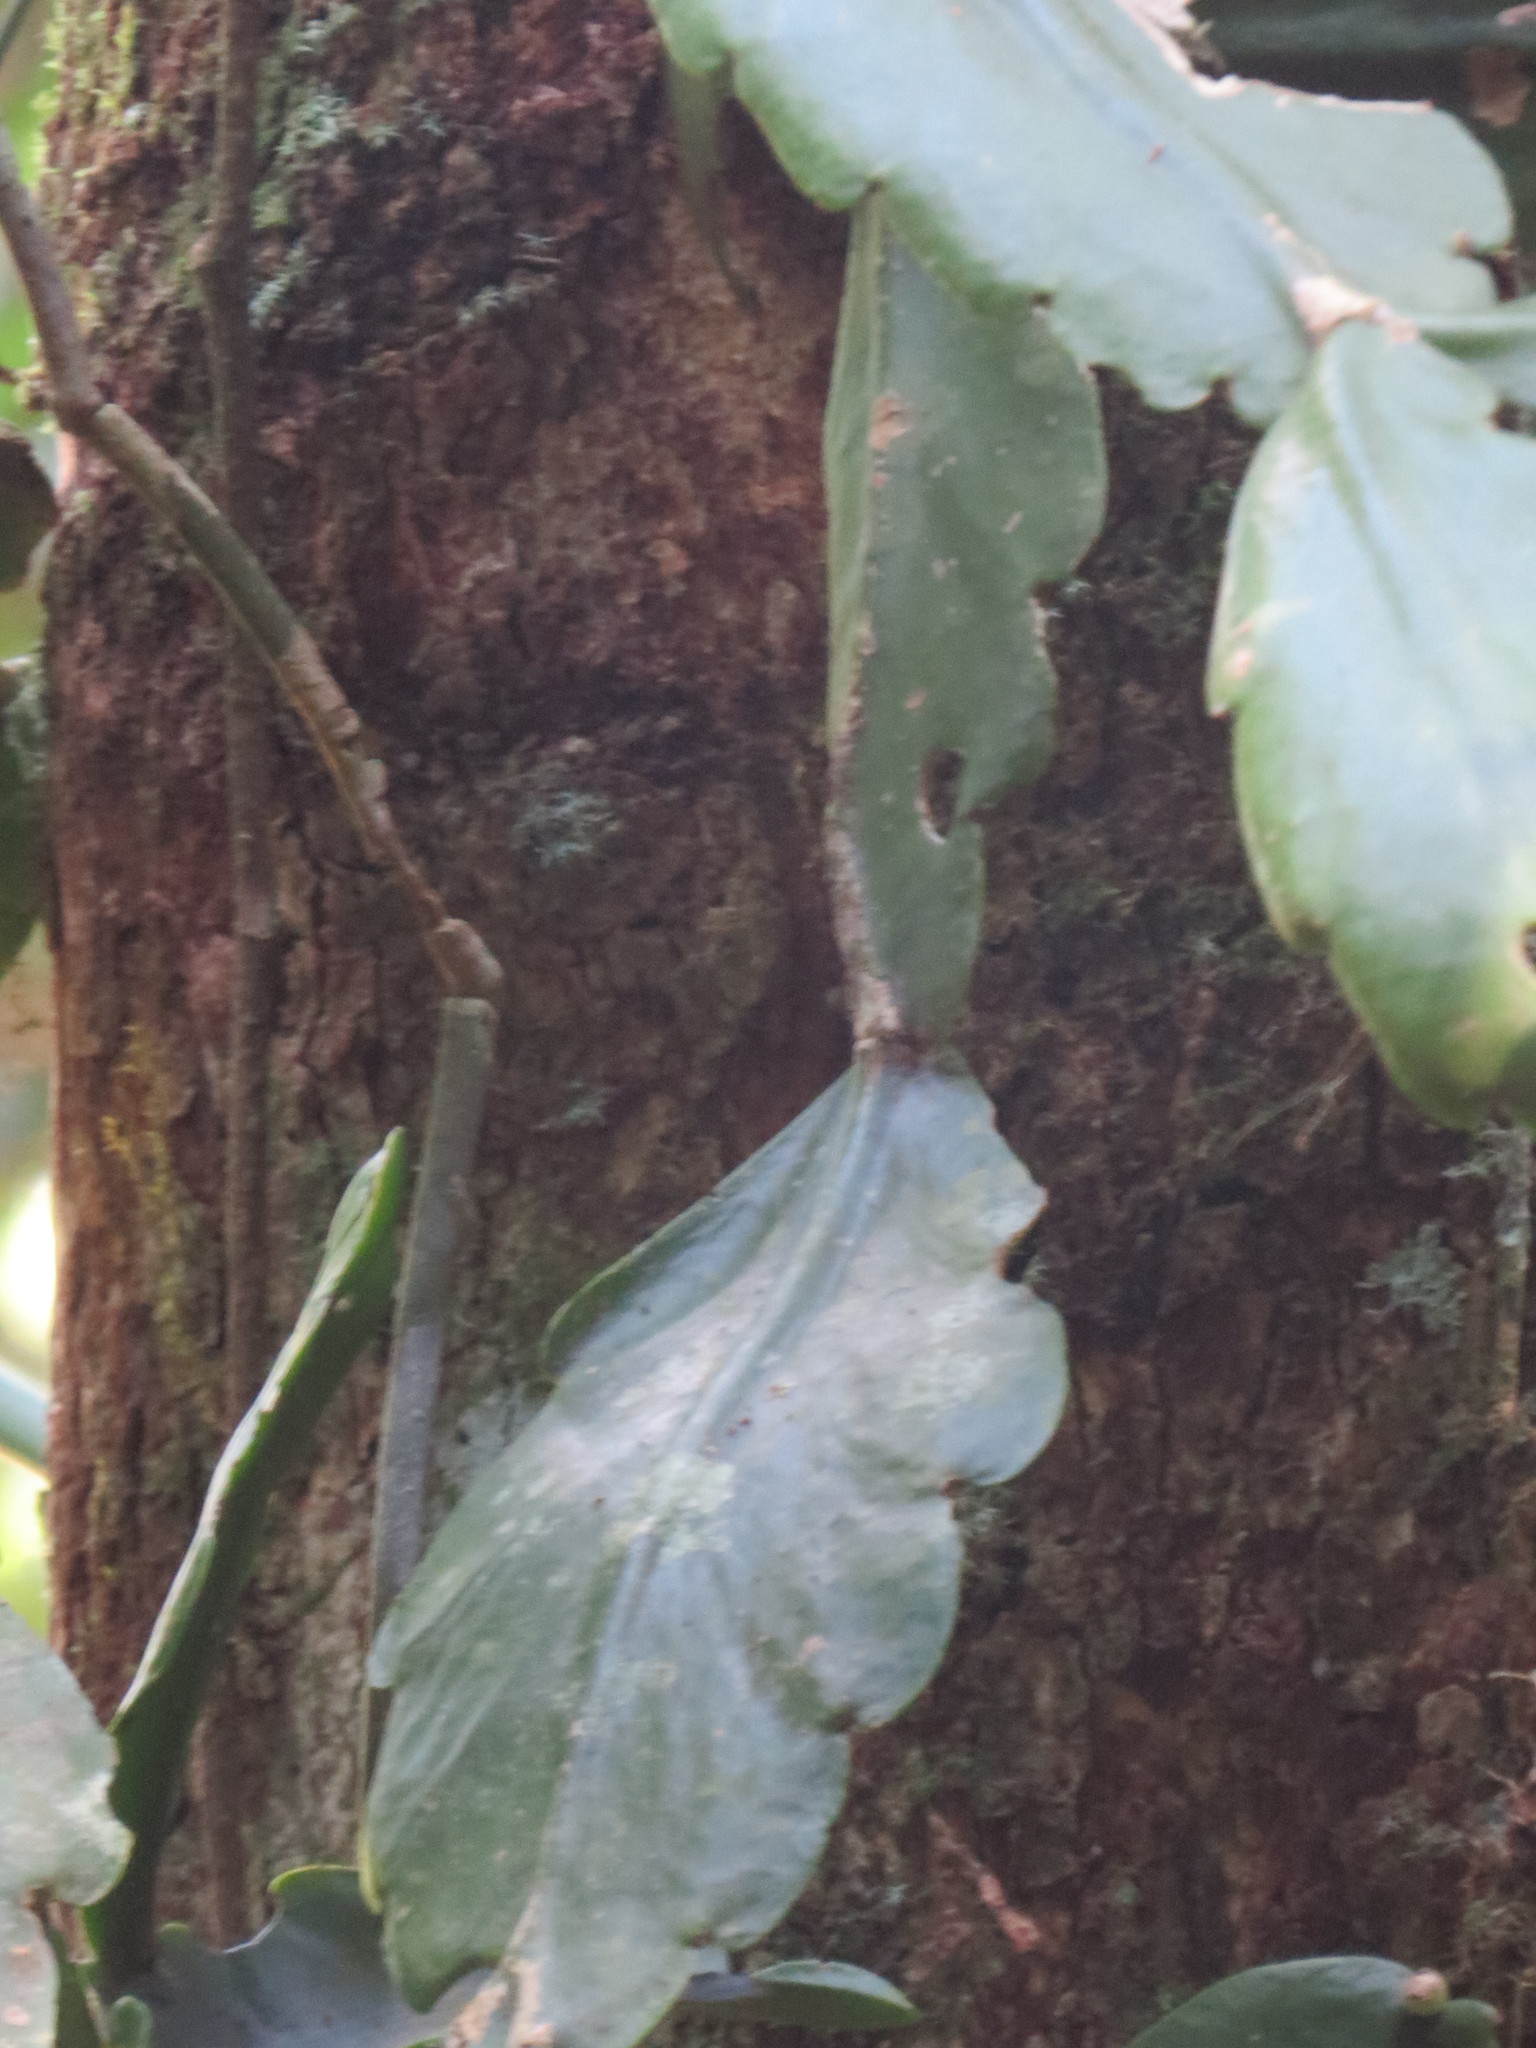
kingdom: Plantae
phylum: Tracheophyta
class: Magnoliopsida
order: Caryophyllales
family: Cactaceae
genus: Rhipsalis
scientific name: Rhipsalis pachyptera
